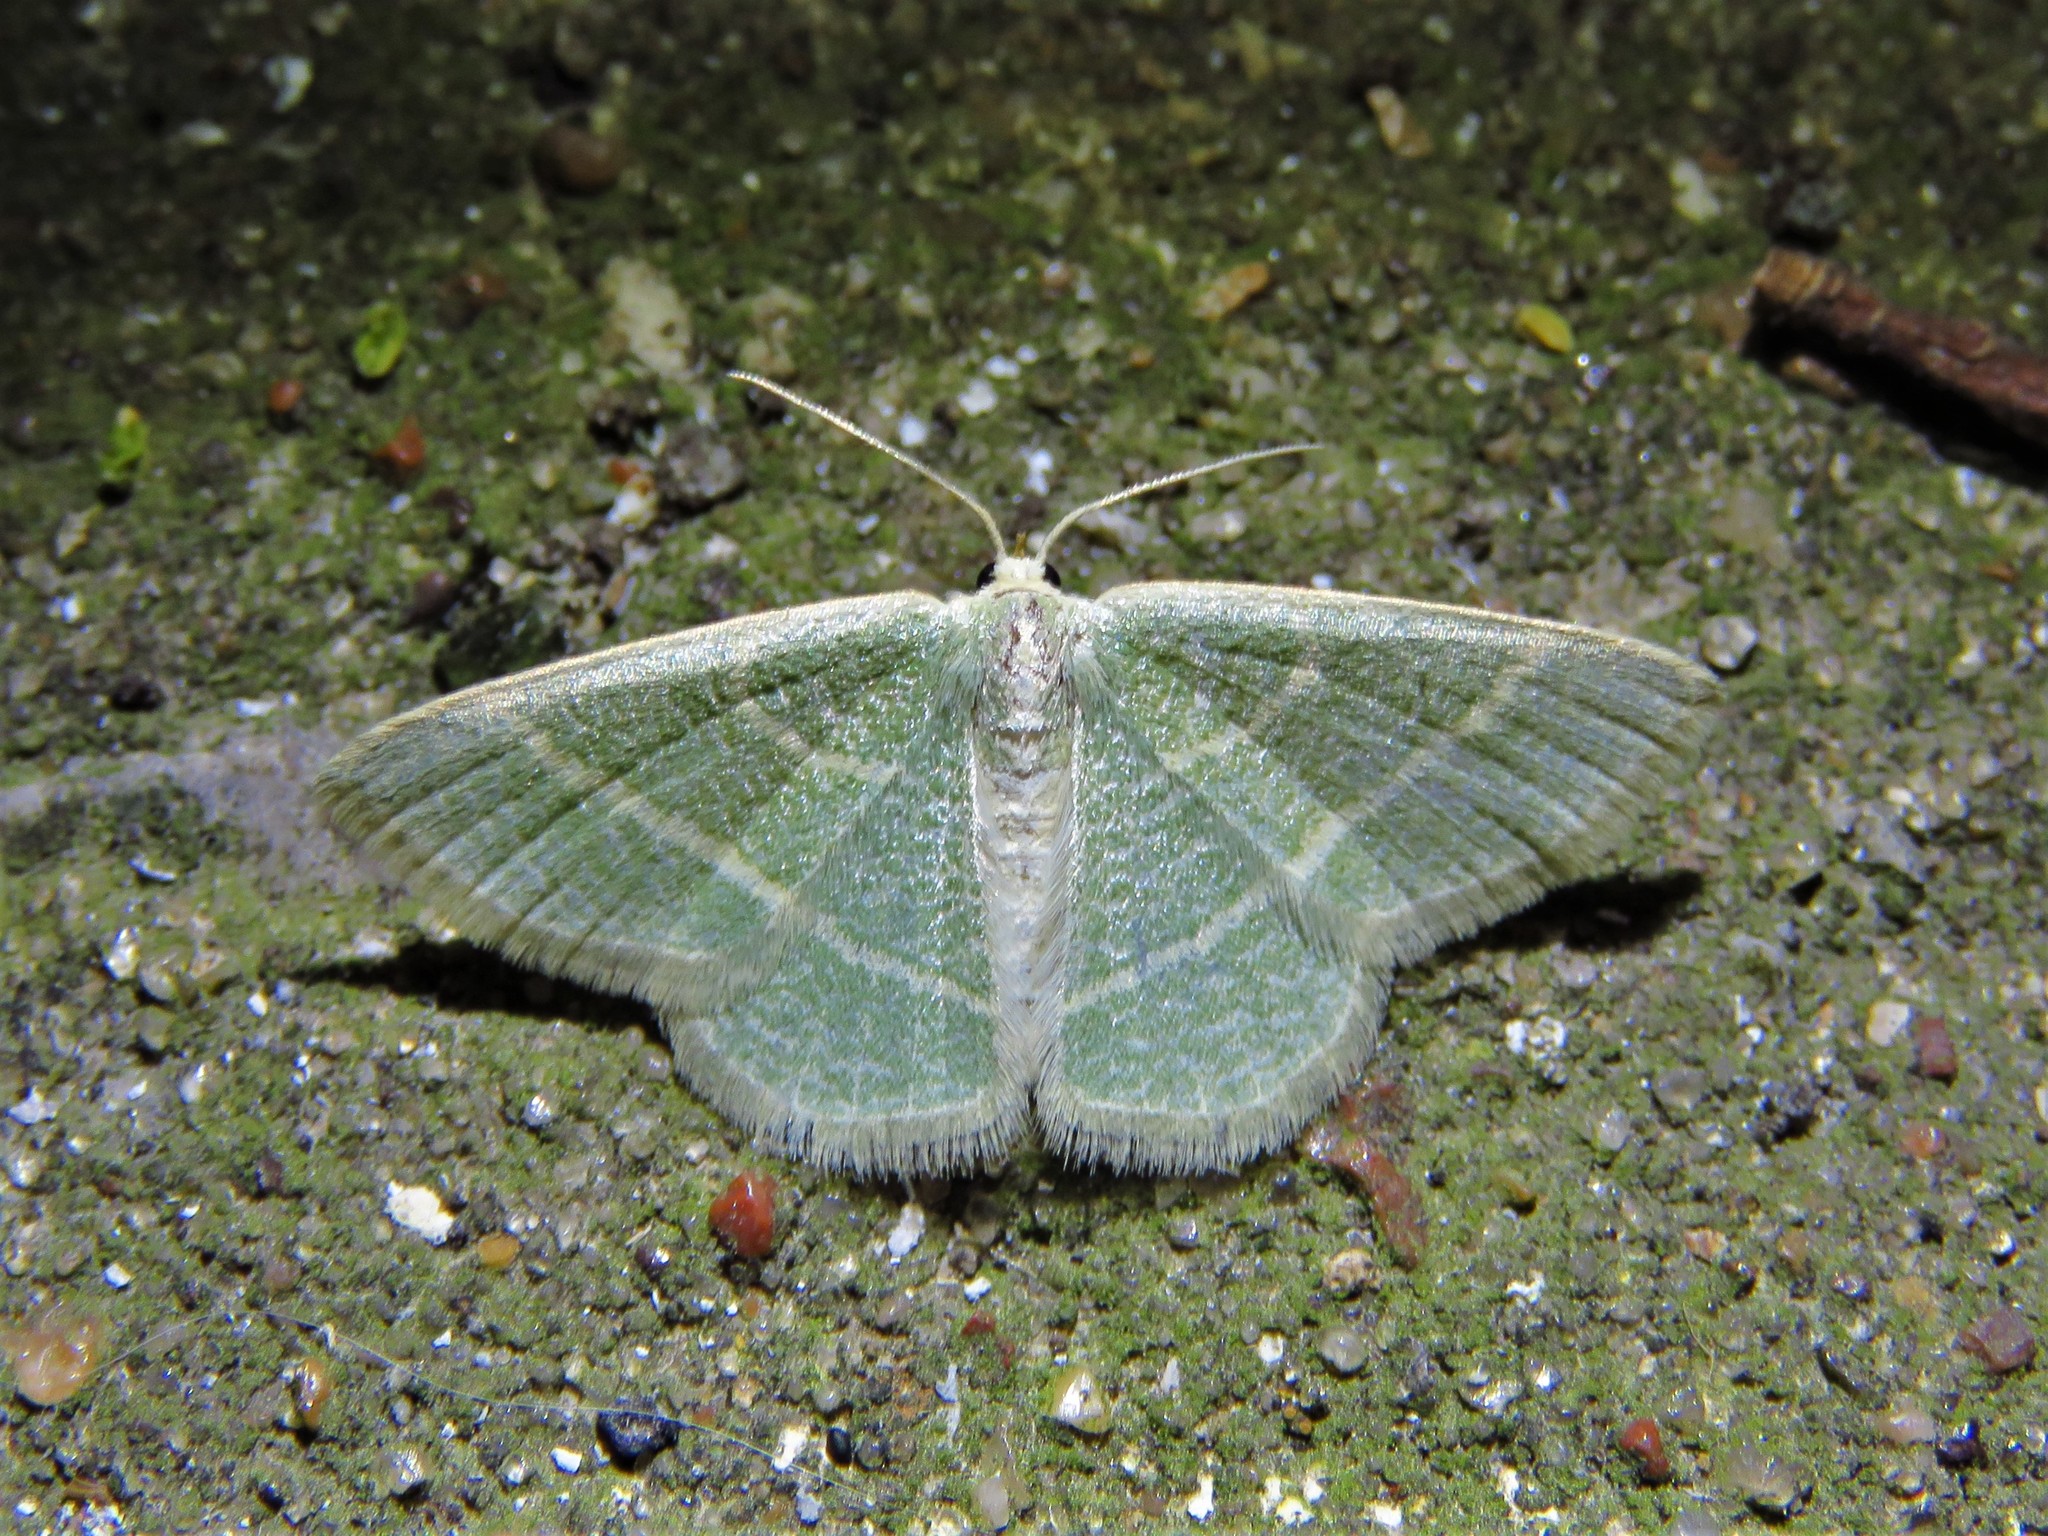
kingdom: Animalia
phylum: Arthropoda
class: Insecta
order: Lepidoptera
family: Geometridae
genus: Chlorochlamys
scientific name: Chlorochlamys chloroleucaria
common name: Blackberry looper
